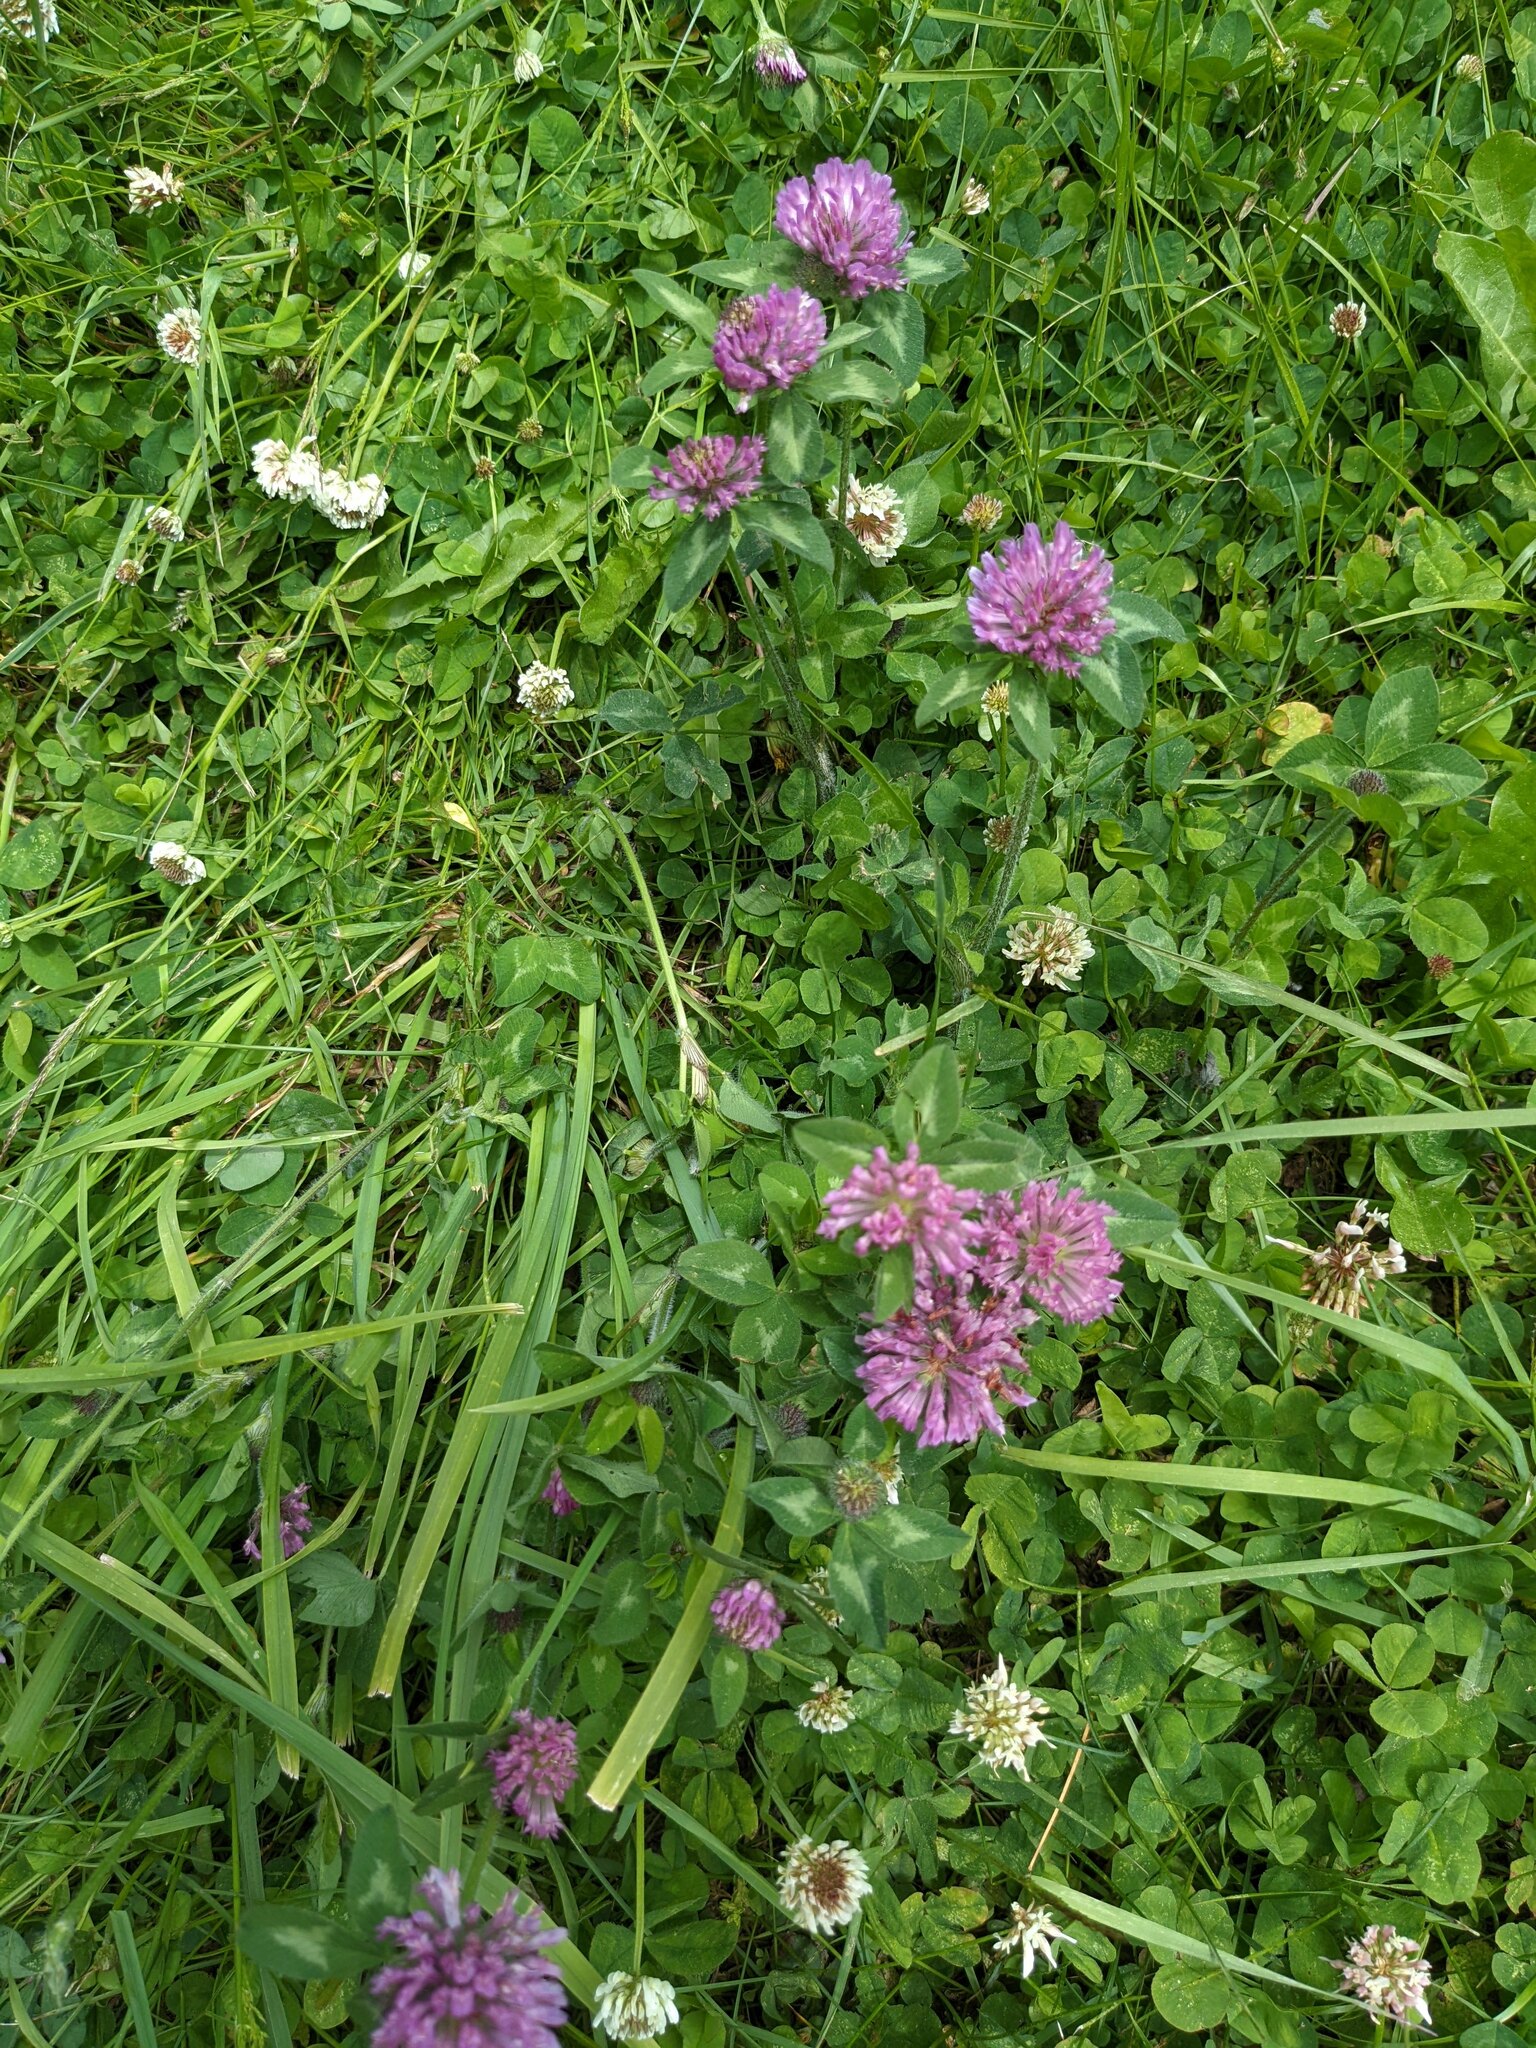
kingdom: Plantae
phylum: Tracheophyta
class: Magnoliopsida
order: Fabales
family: Fabaceae
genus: Trifolium
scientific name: Trifolium pratense
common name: Red clover
